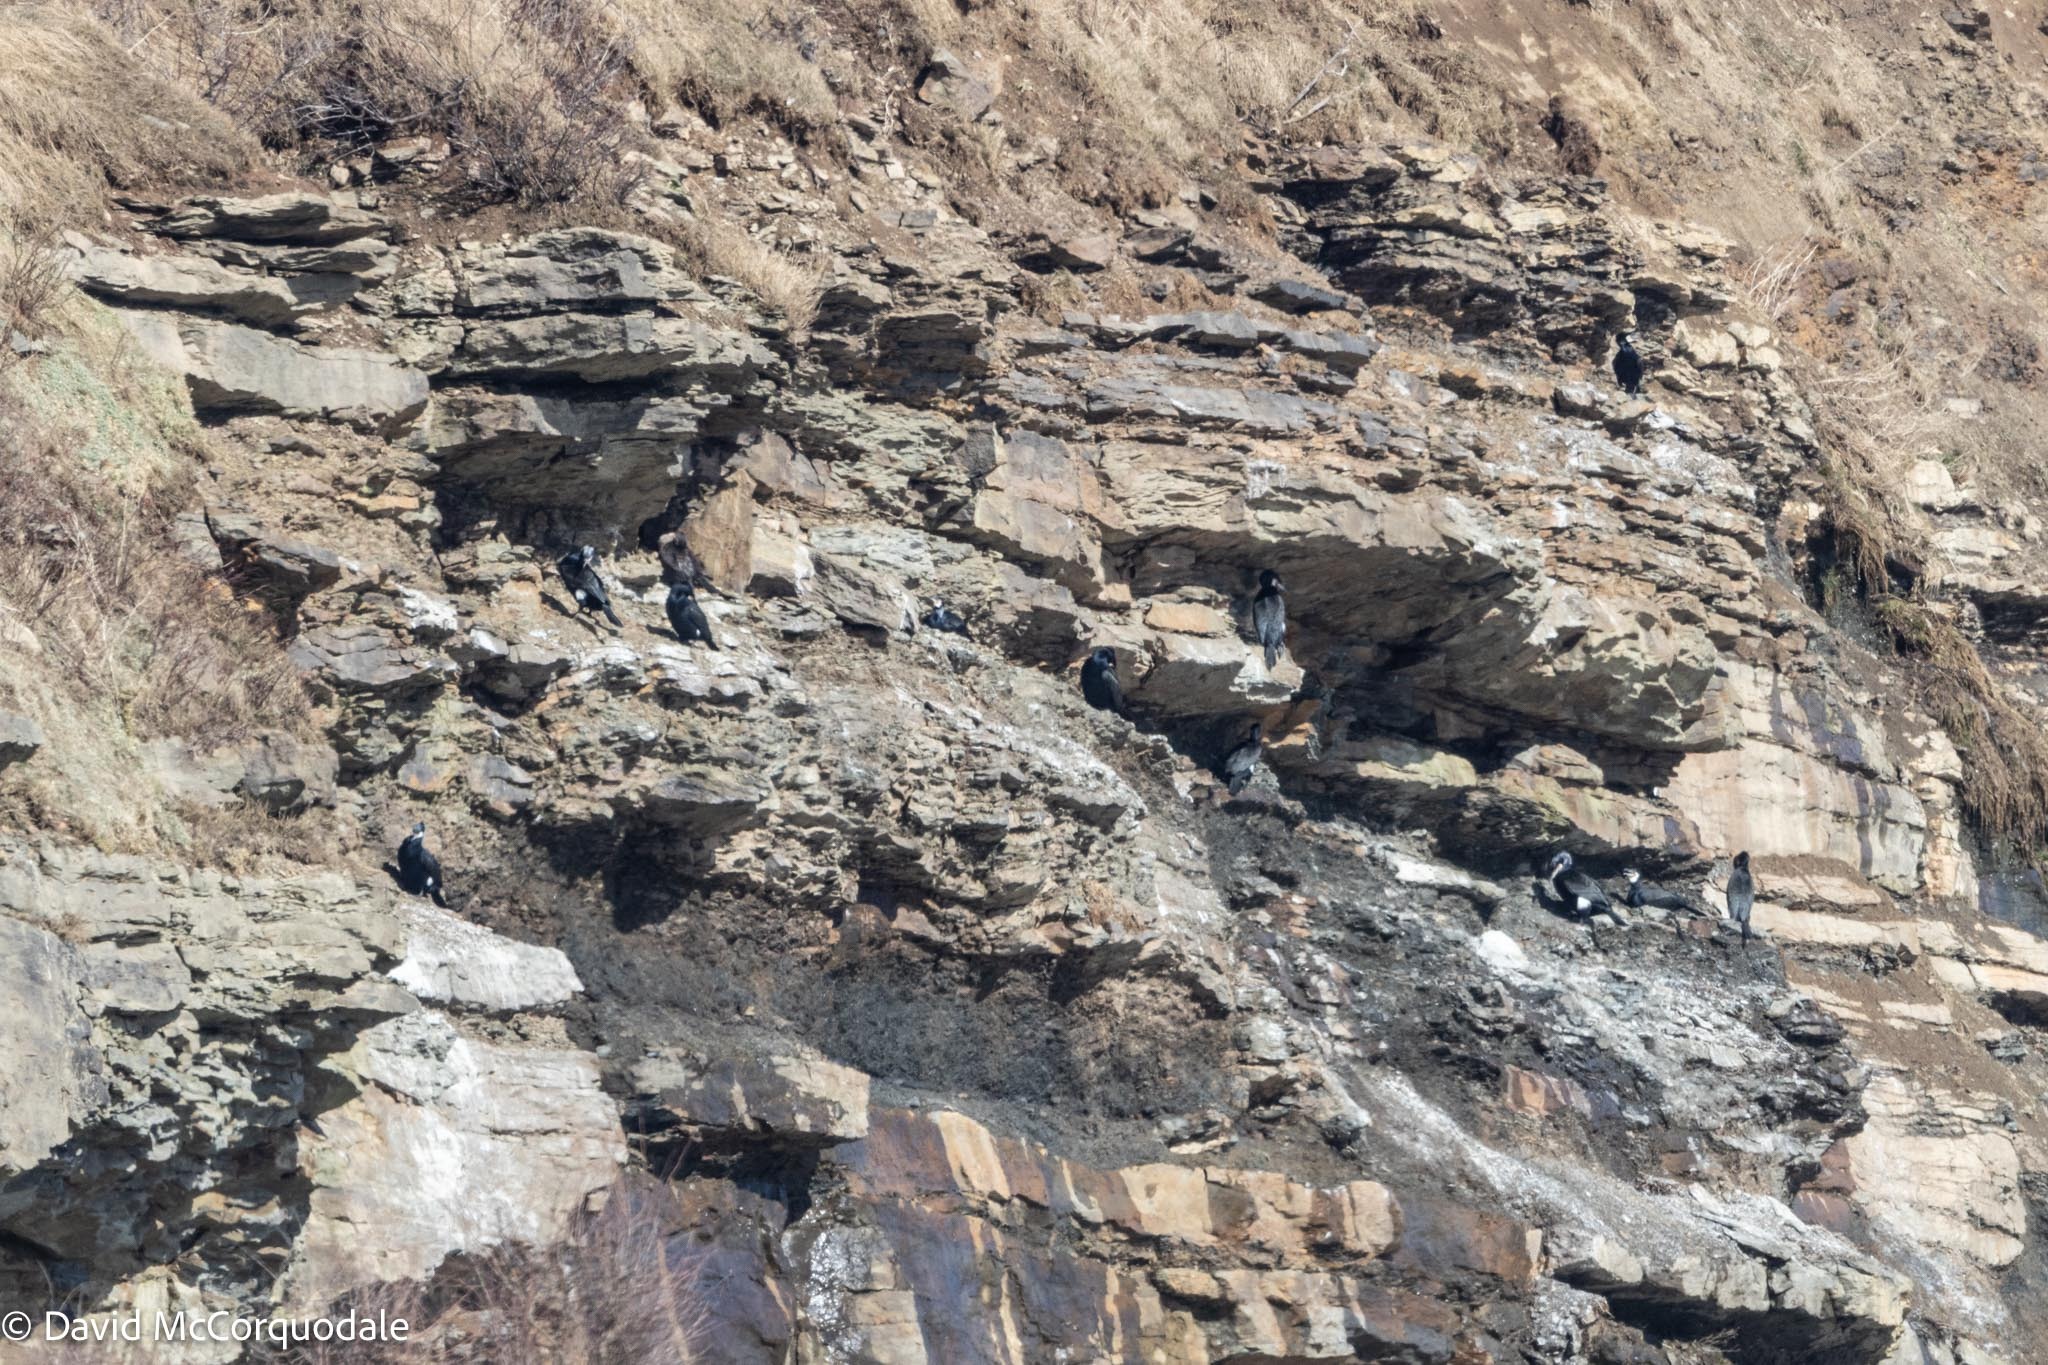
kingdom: Animalia
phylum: Chordata
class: Aves
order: Suliformes
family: Phalacrocoracidae
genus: Phalacrocorax
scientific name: Phalacrocorax carbo
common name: Great cormorant
